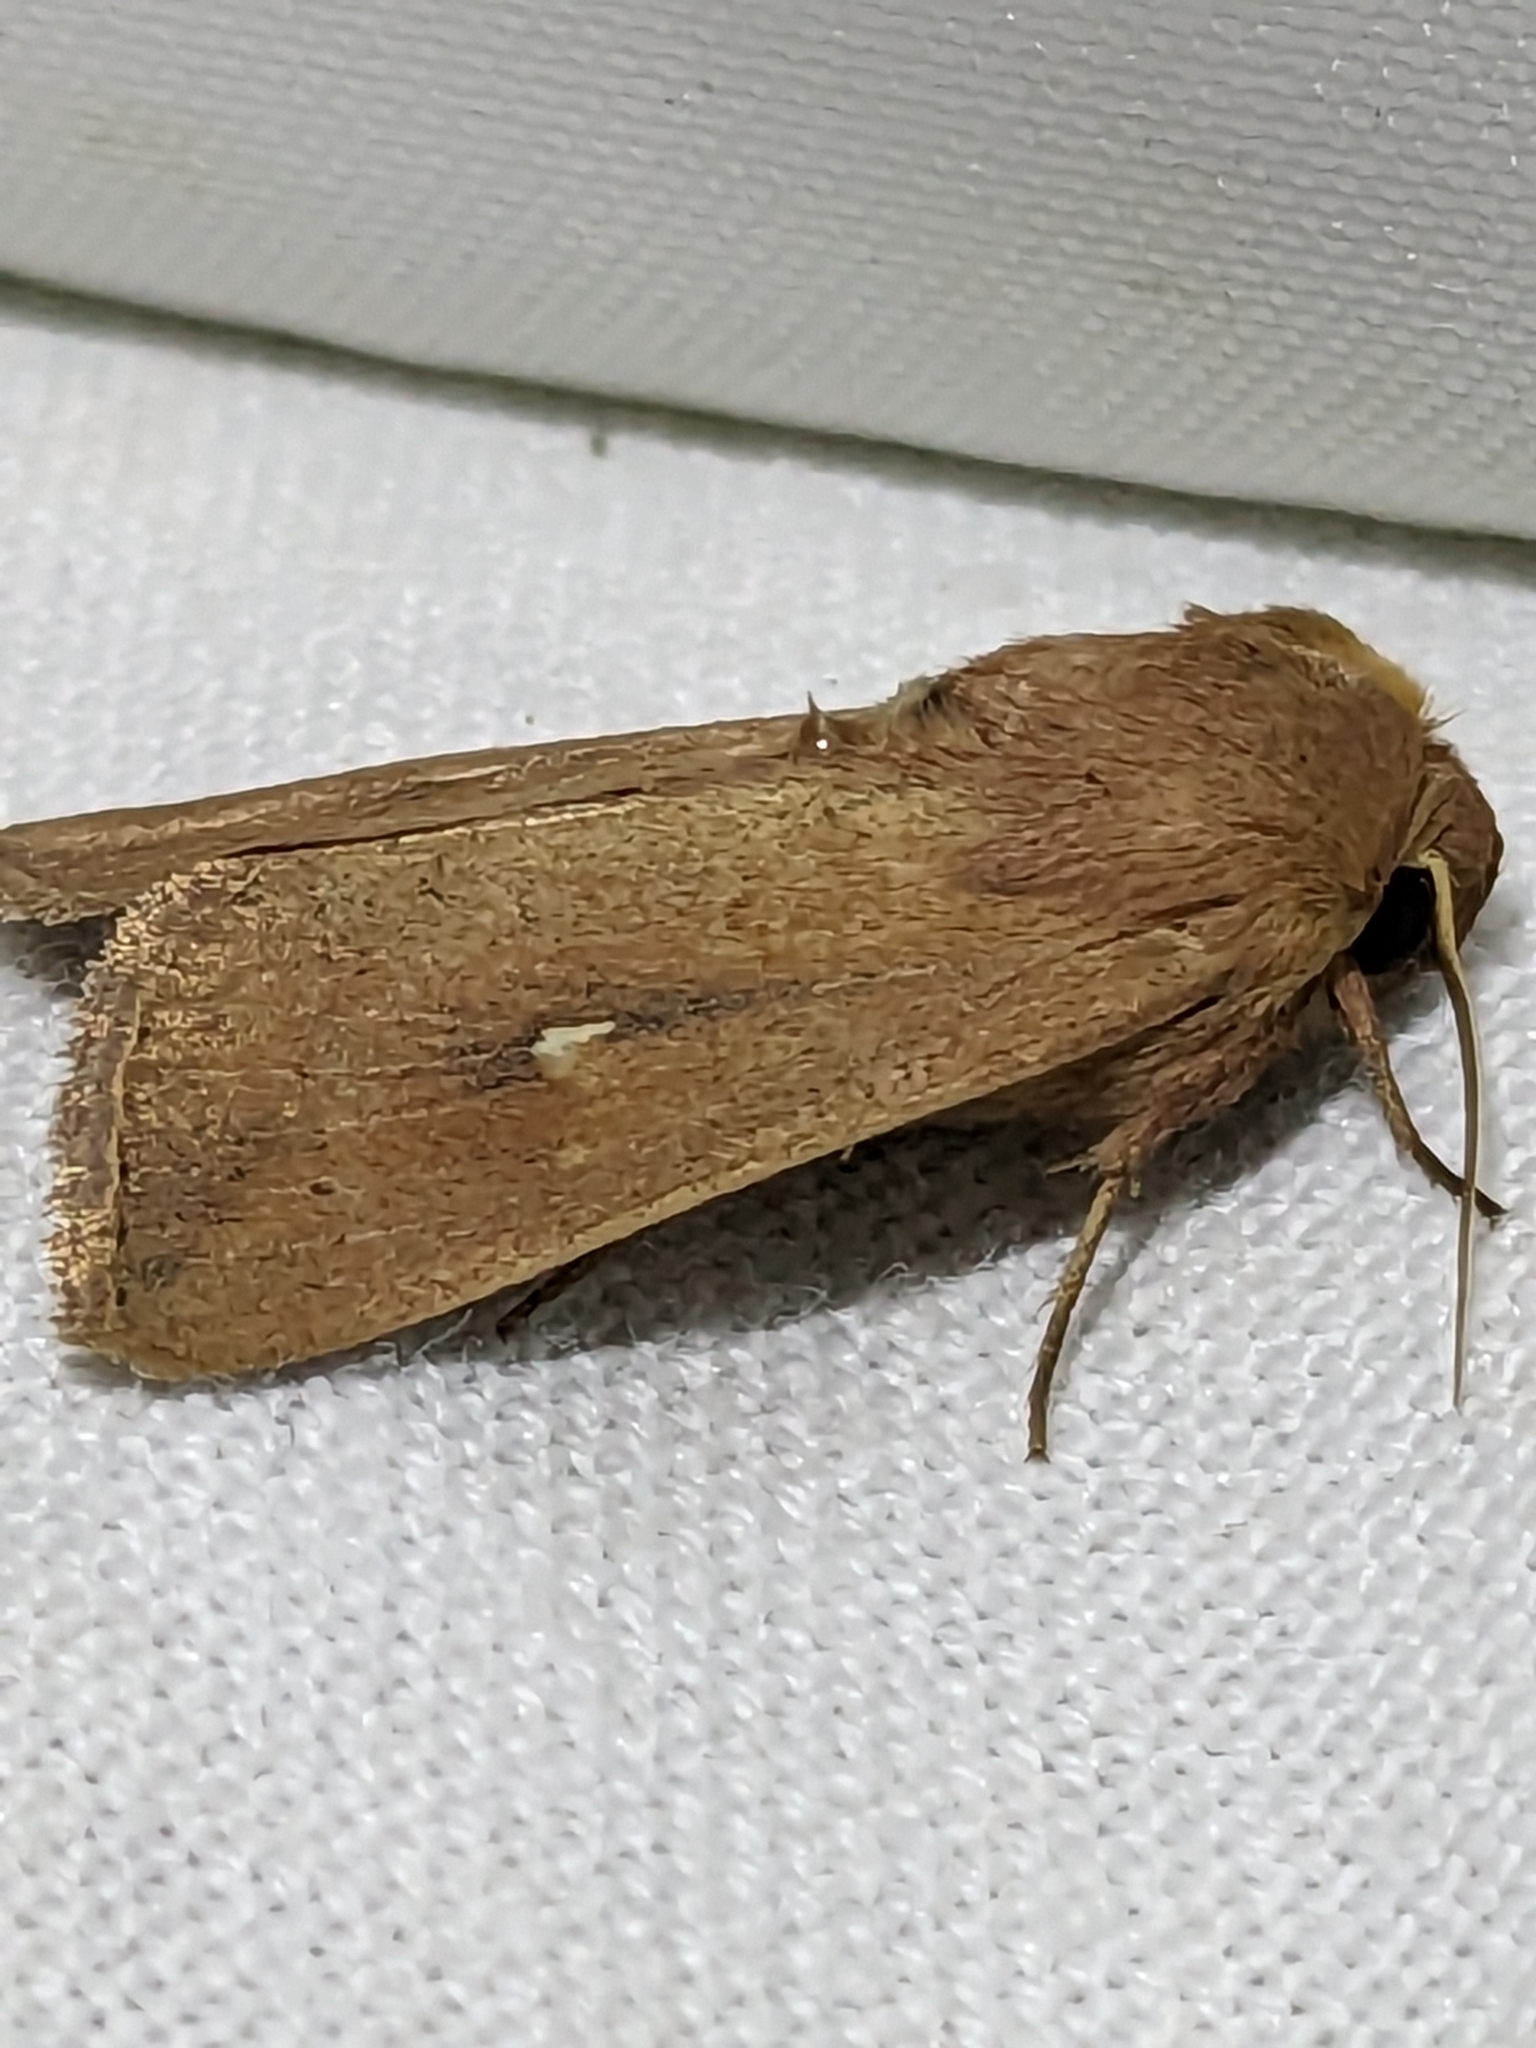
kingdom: Animalia
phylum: Arthropoda
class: Insecta
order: Lepidoptera
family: Noctuidae
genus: Mythimna
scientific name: Mythimna ferrago
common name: Clay
